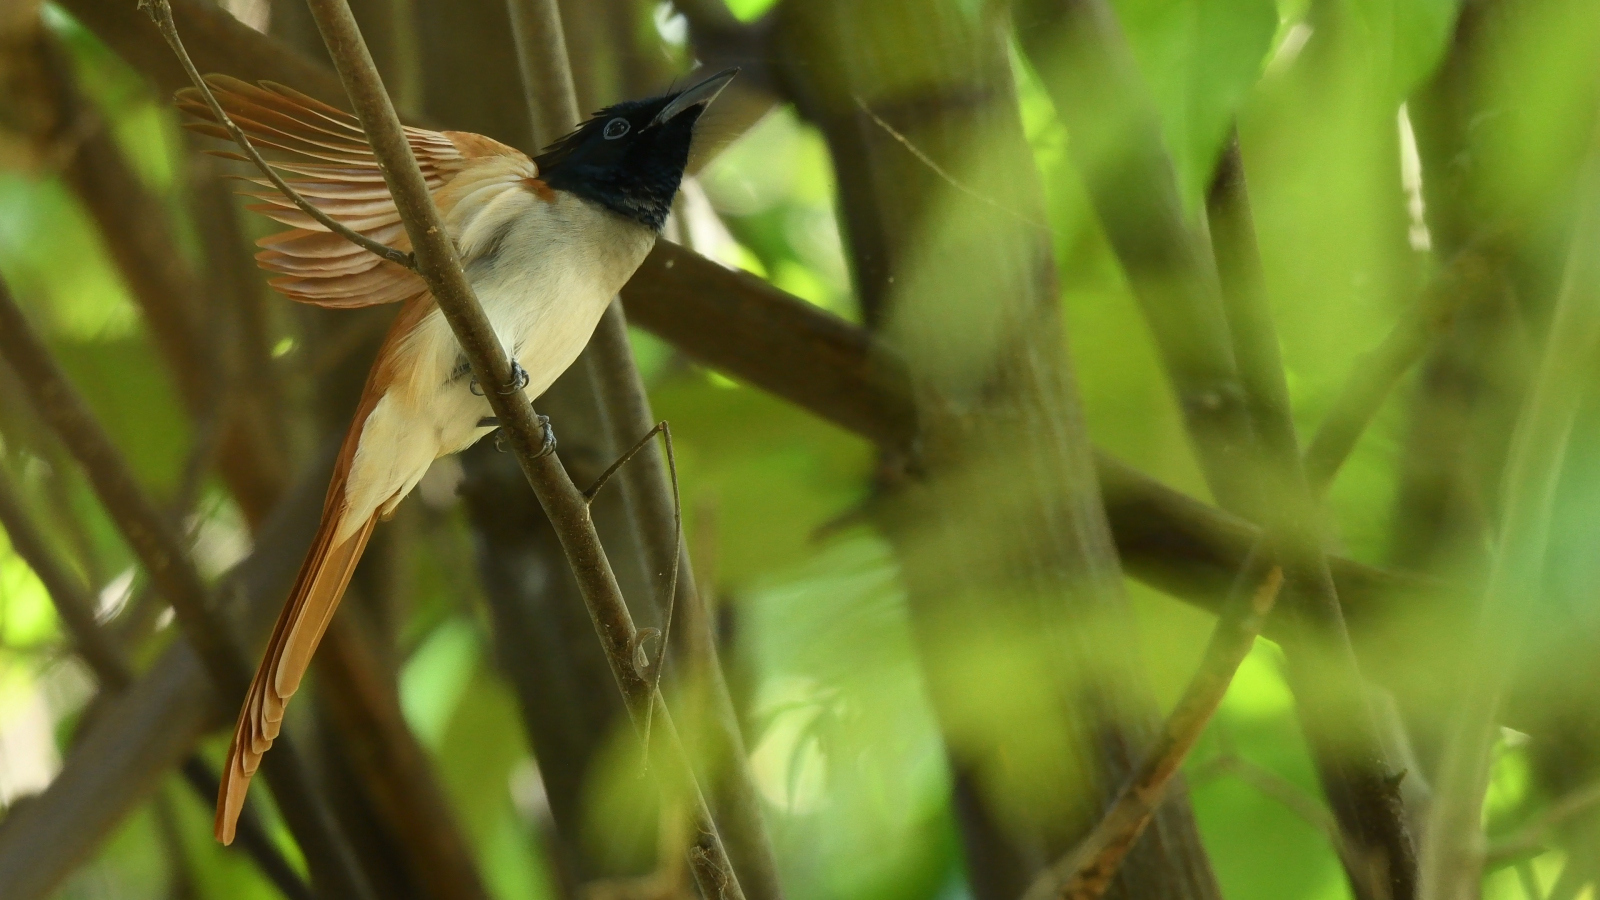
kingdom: Animalia
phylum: Chordata
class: Aves
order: Passeriformes
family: Monarchidae
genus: Terpsiphone
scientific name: Terpsiphone paradisi
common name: Indian paradise flycatcher
